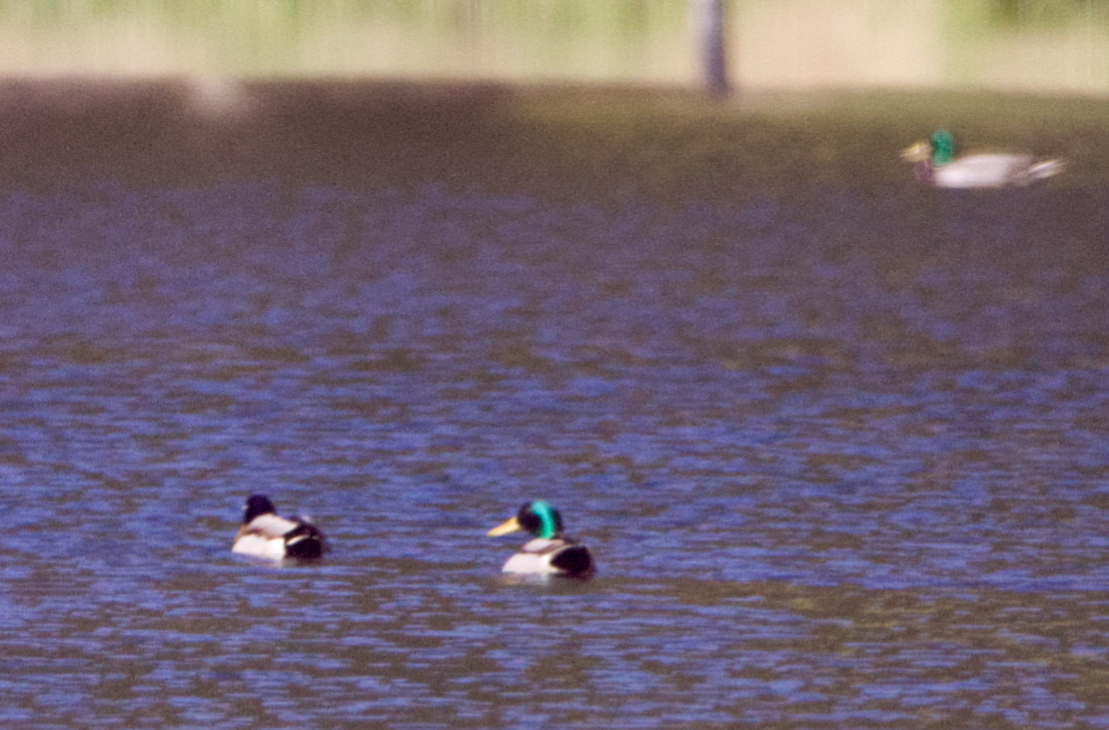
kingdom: Animalia
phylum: Chordata
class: Aves
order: Anseriformes
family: Anatidae
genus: Anas
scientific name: Anas platyrhynchos
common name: Mallard
